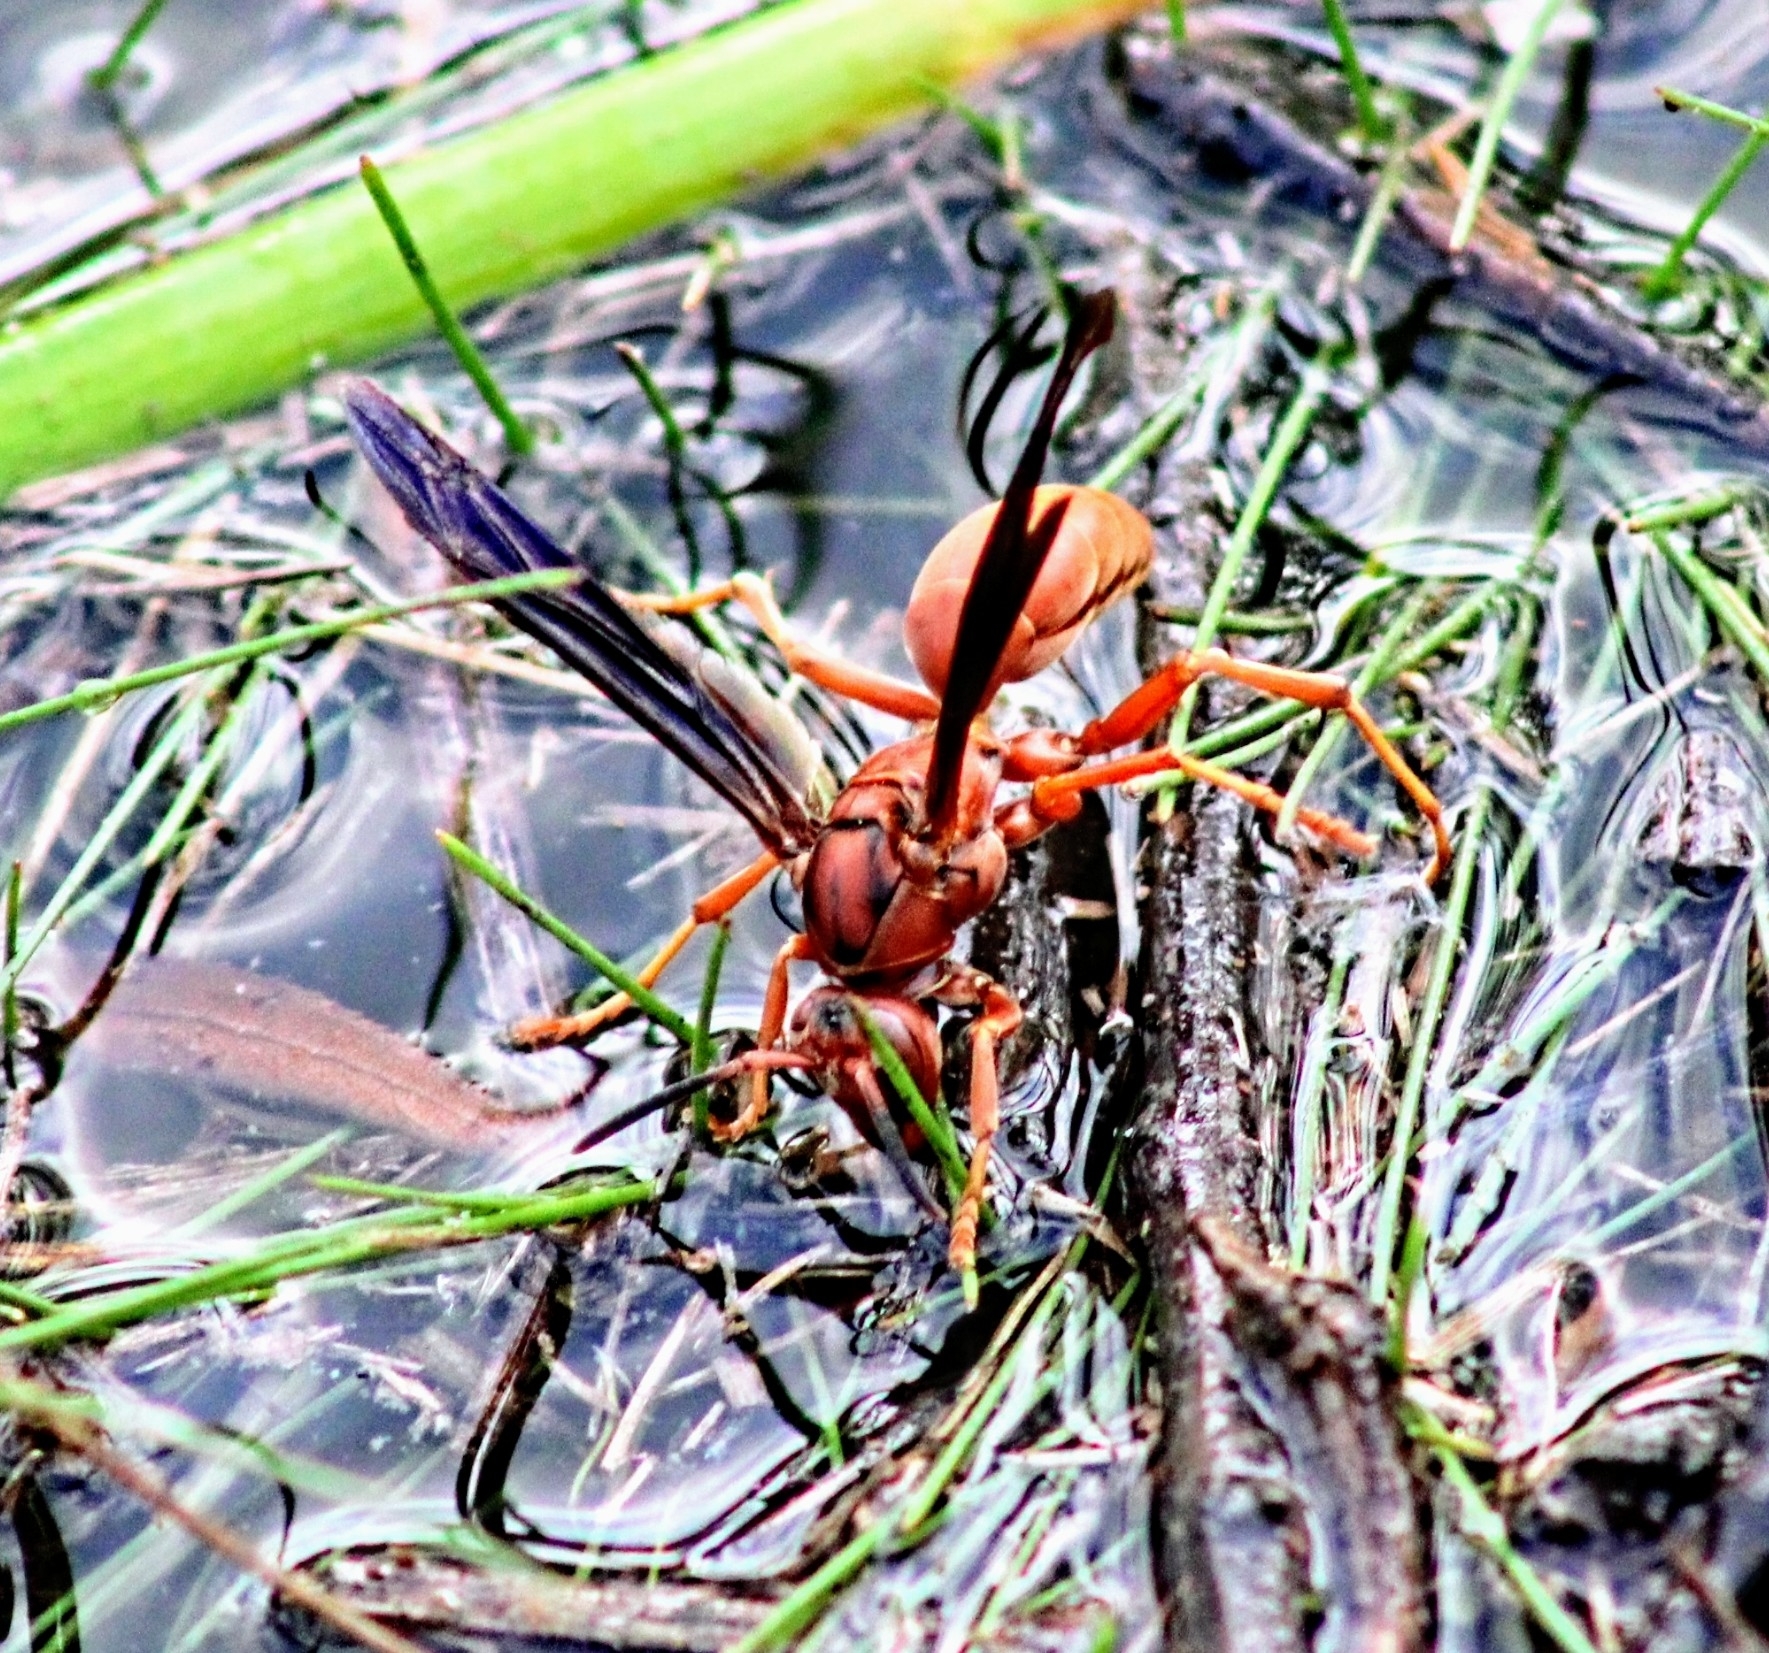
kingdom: Animalia
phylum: Arthropoda
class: Insecta
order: Hymenoptera
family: Vespidae
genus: Fuscopolistes
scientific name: Fuscopolistes
